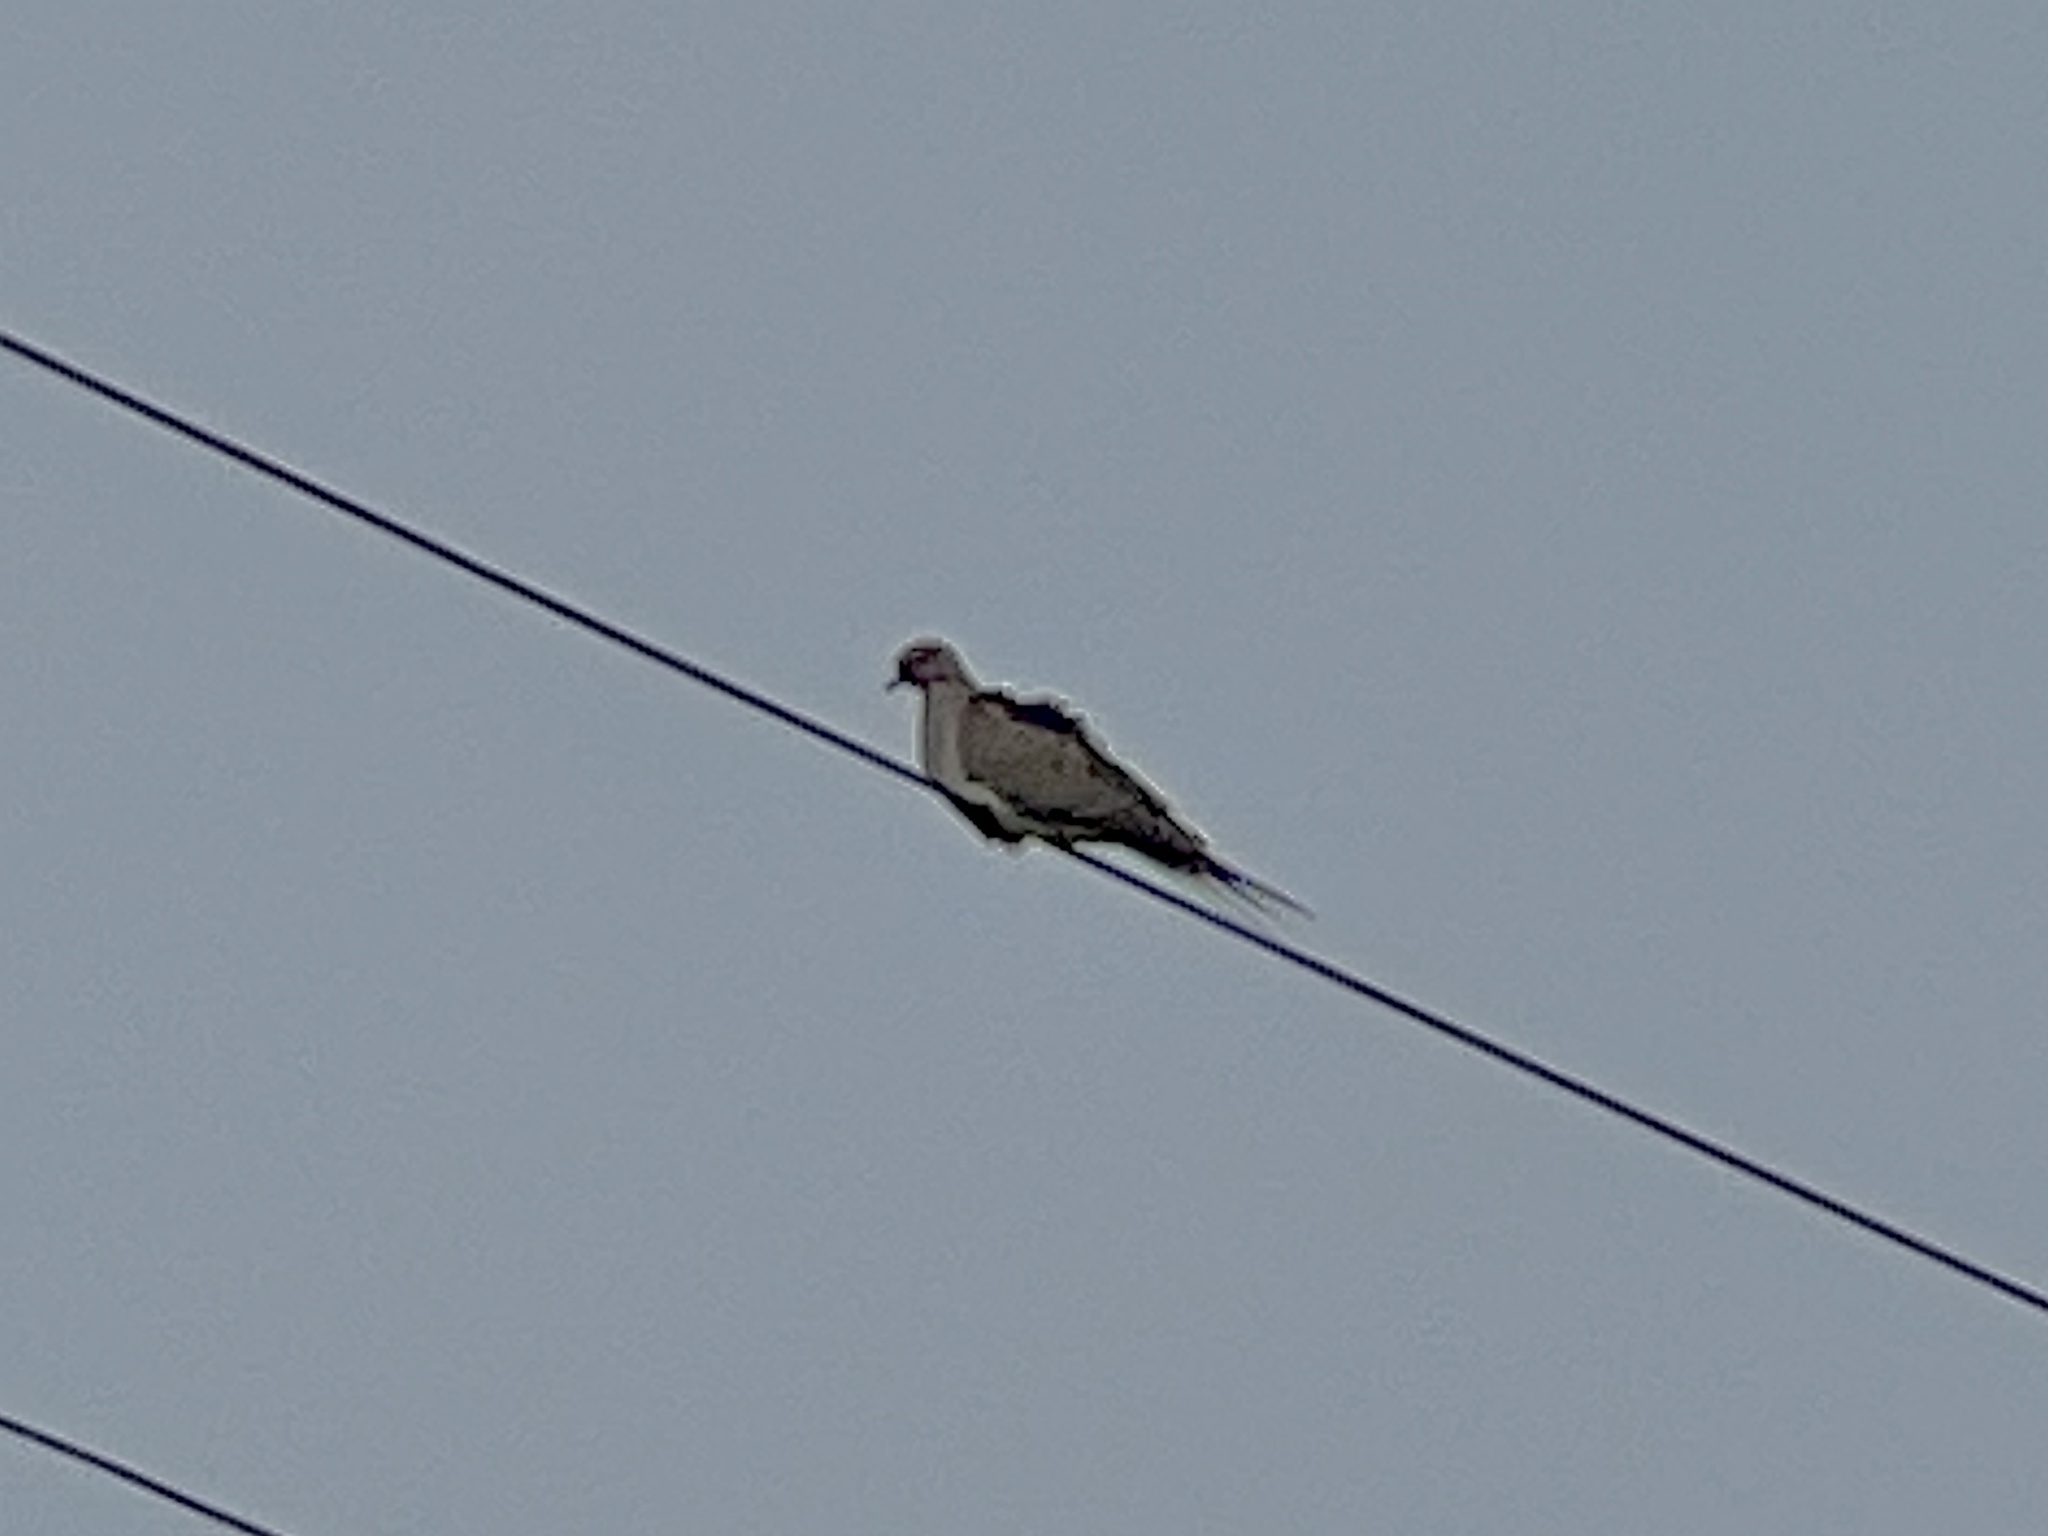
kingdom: Animalia
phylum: Chordata
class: Aves
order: Columbiformes
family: Columbidae
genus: Zenaida
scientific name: Zenaida macroura
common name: Mourning dove
